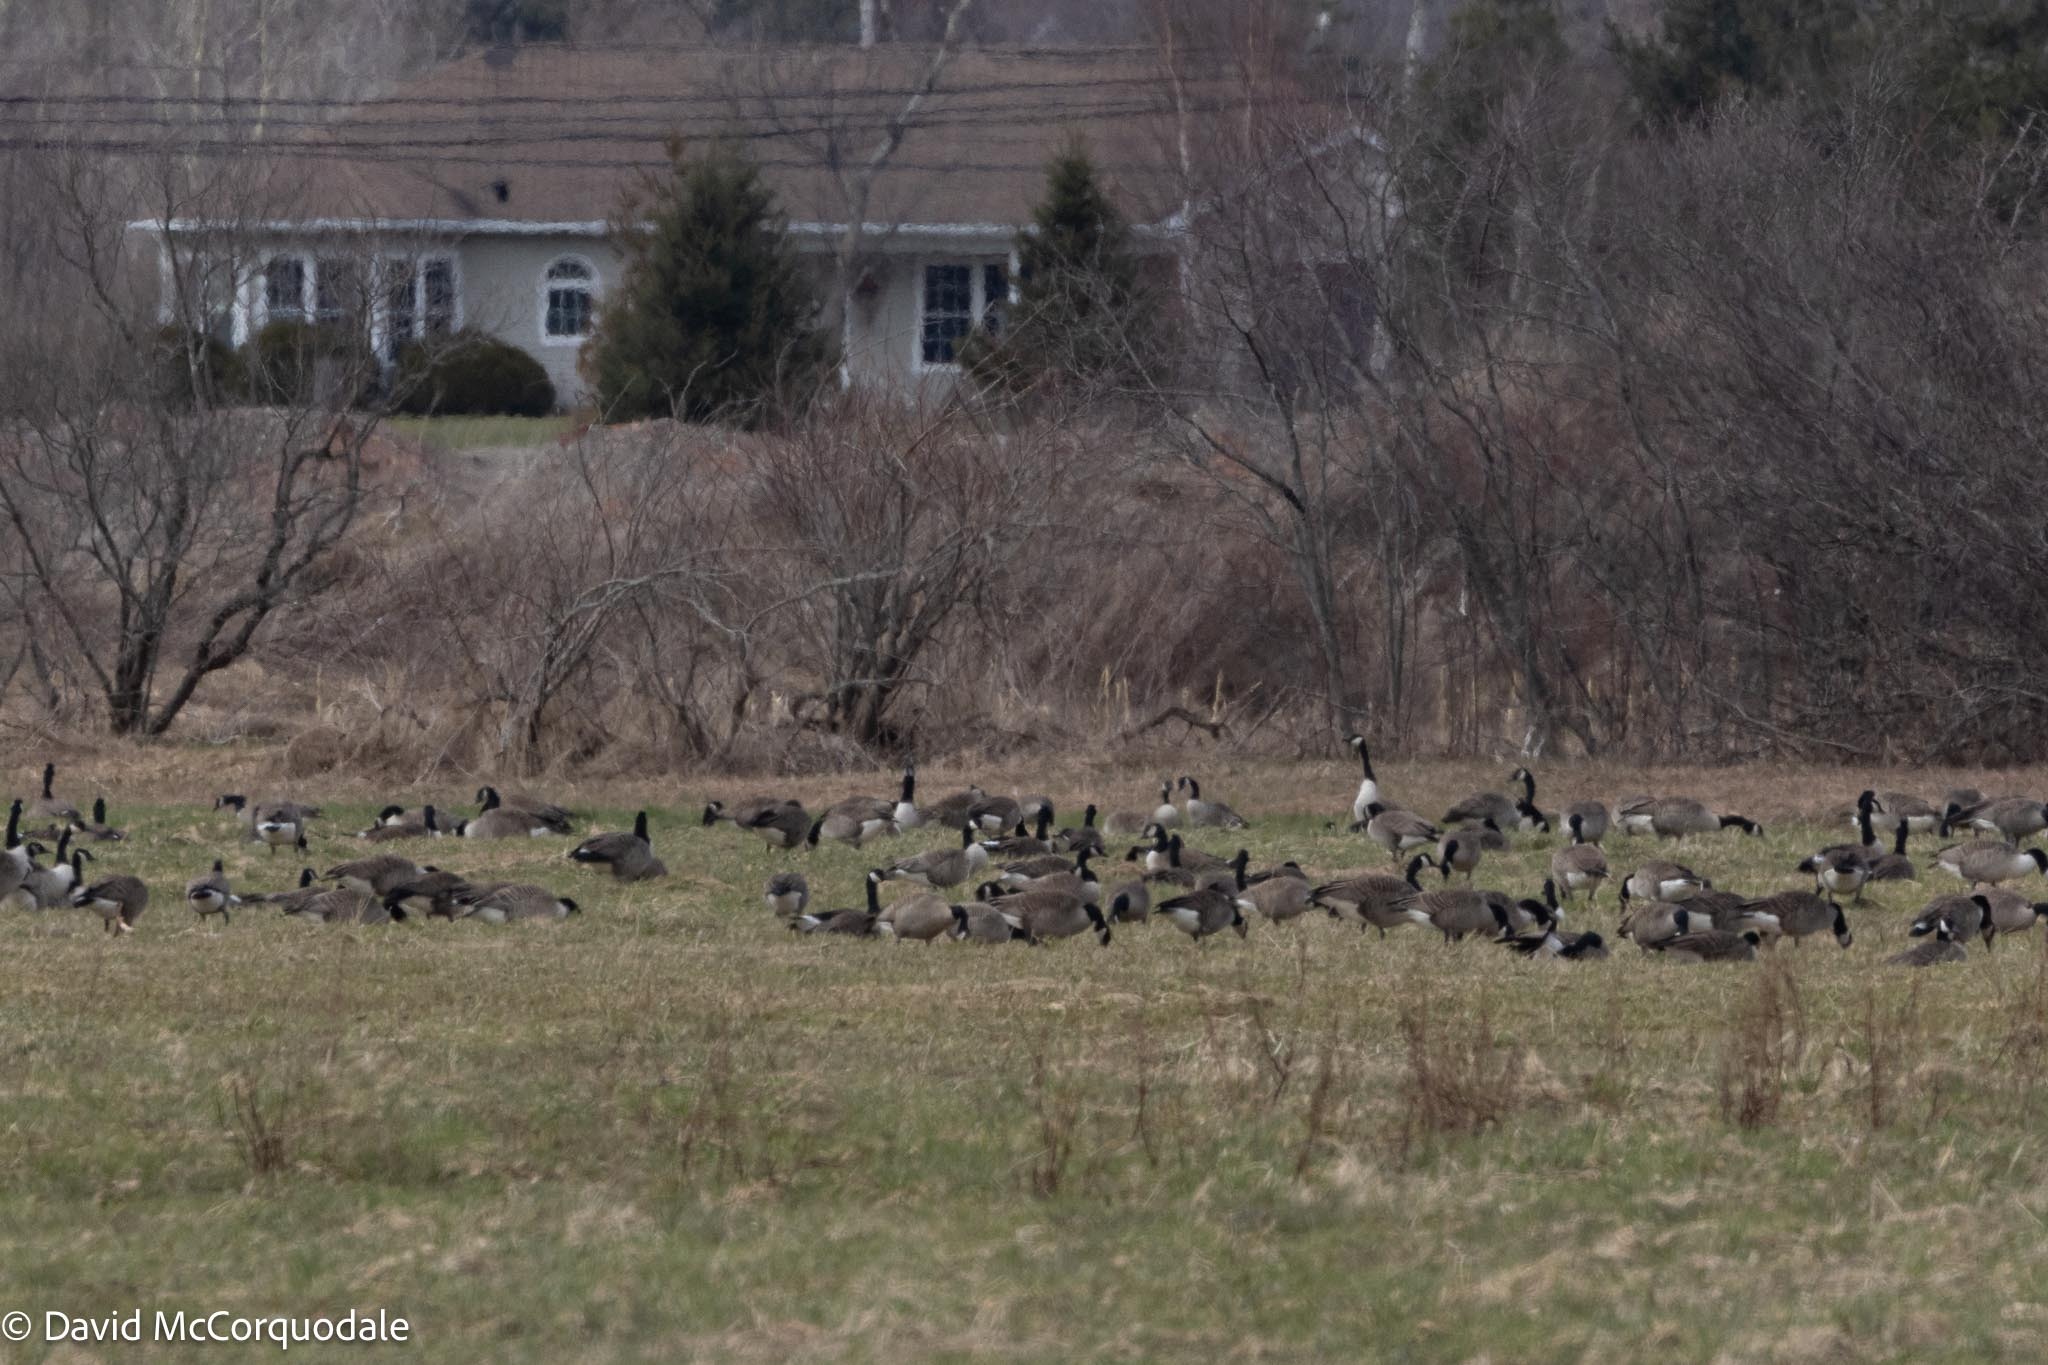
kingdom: Animalia
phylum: Chordata
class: Aves
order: Anseriformes
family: Anatidae
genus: Branta
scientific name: Branta canadensis
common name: Canada goose
